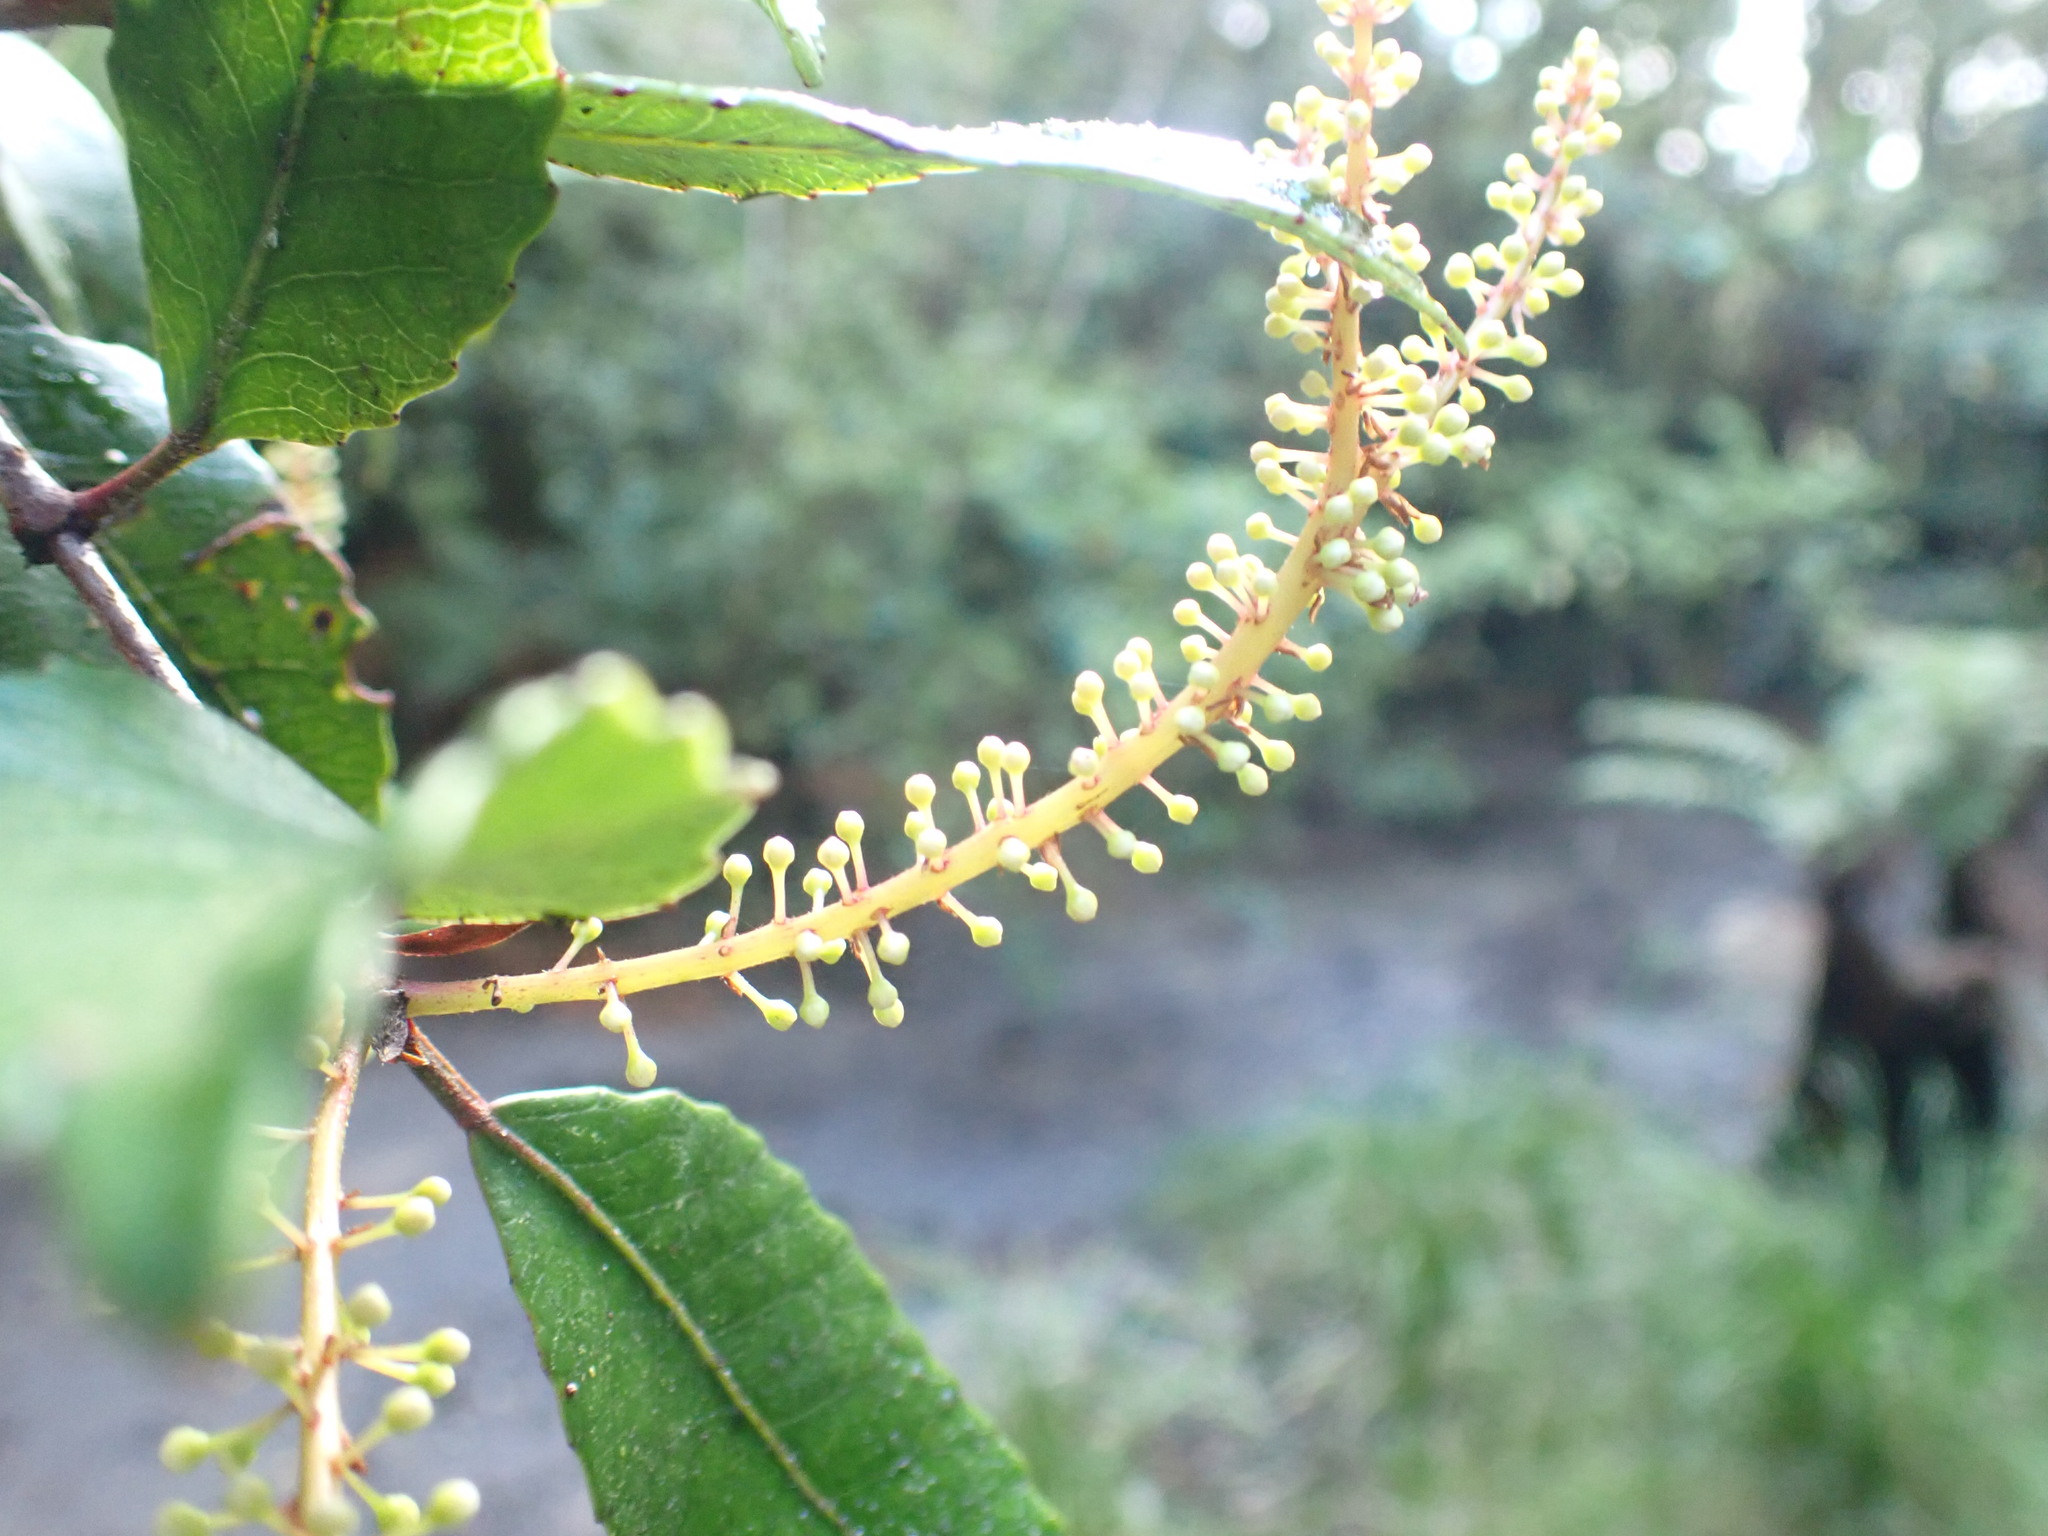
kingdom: Plantae
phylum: Tracheophyta
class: Magnoliopsida
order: Oxalidales
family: Cunoniaceae
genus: Pterophylla
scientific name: Pterophylla racemosa
